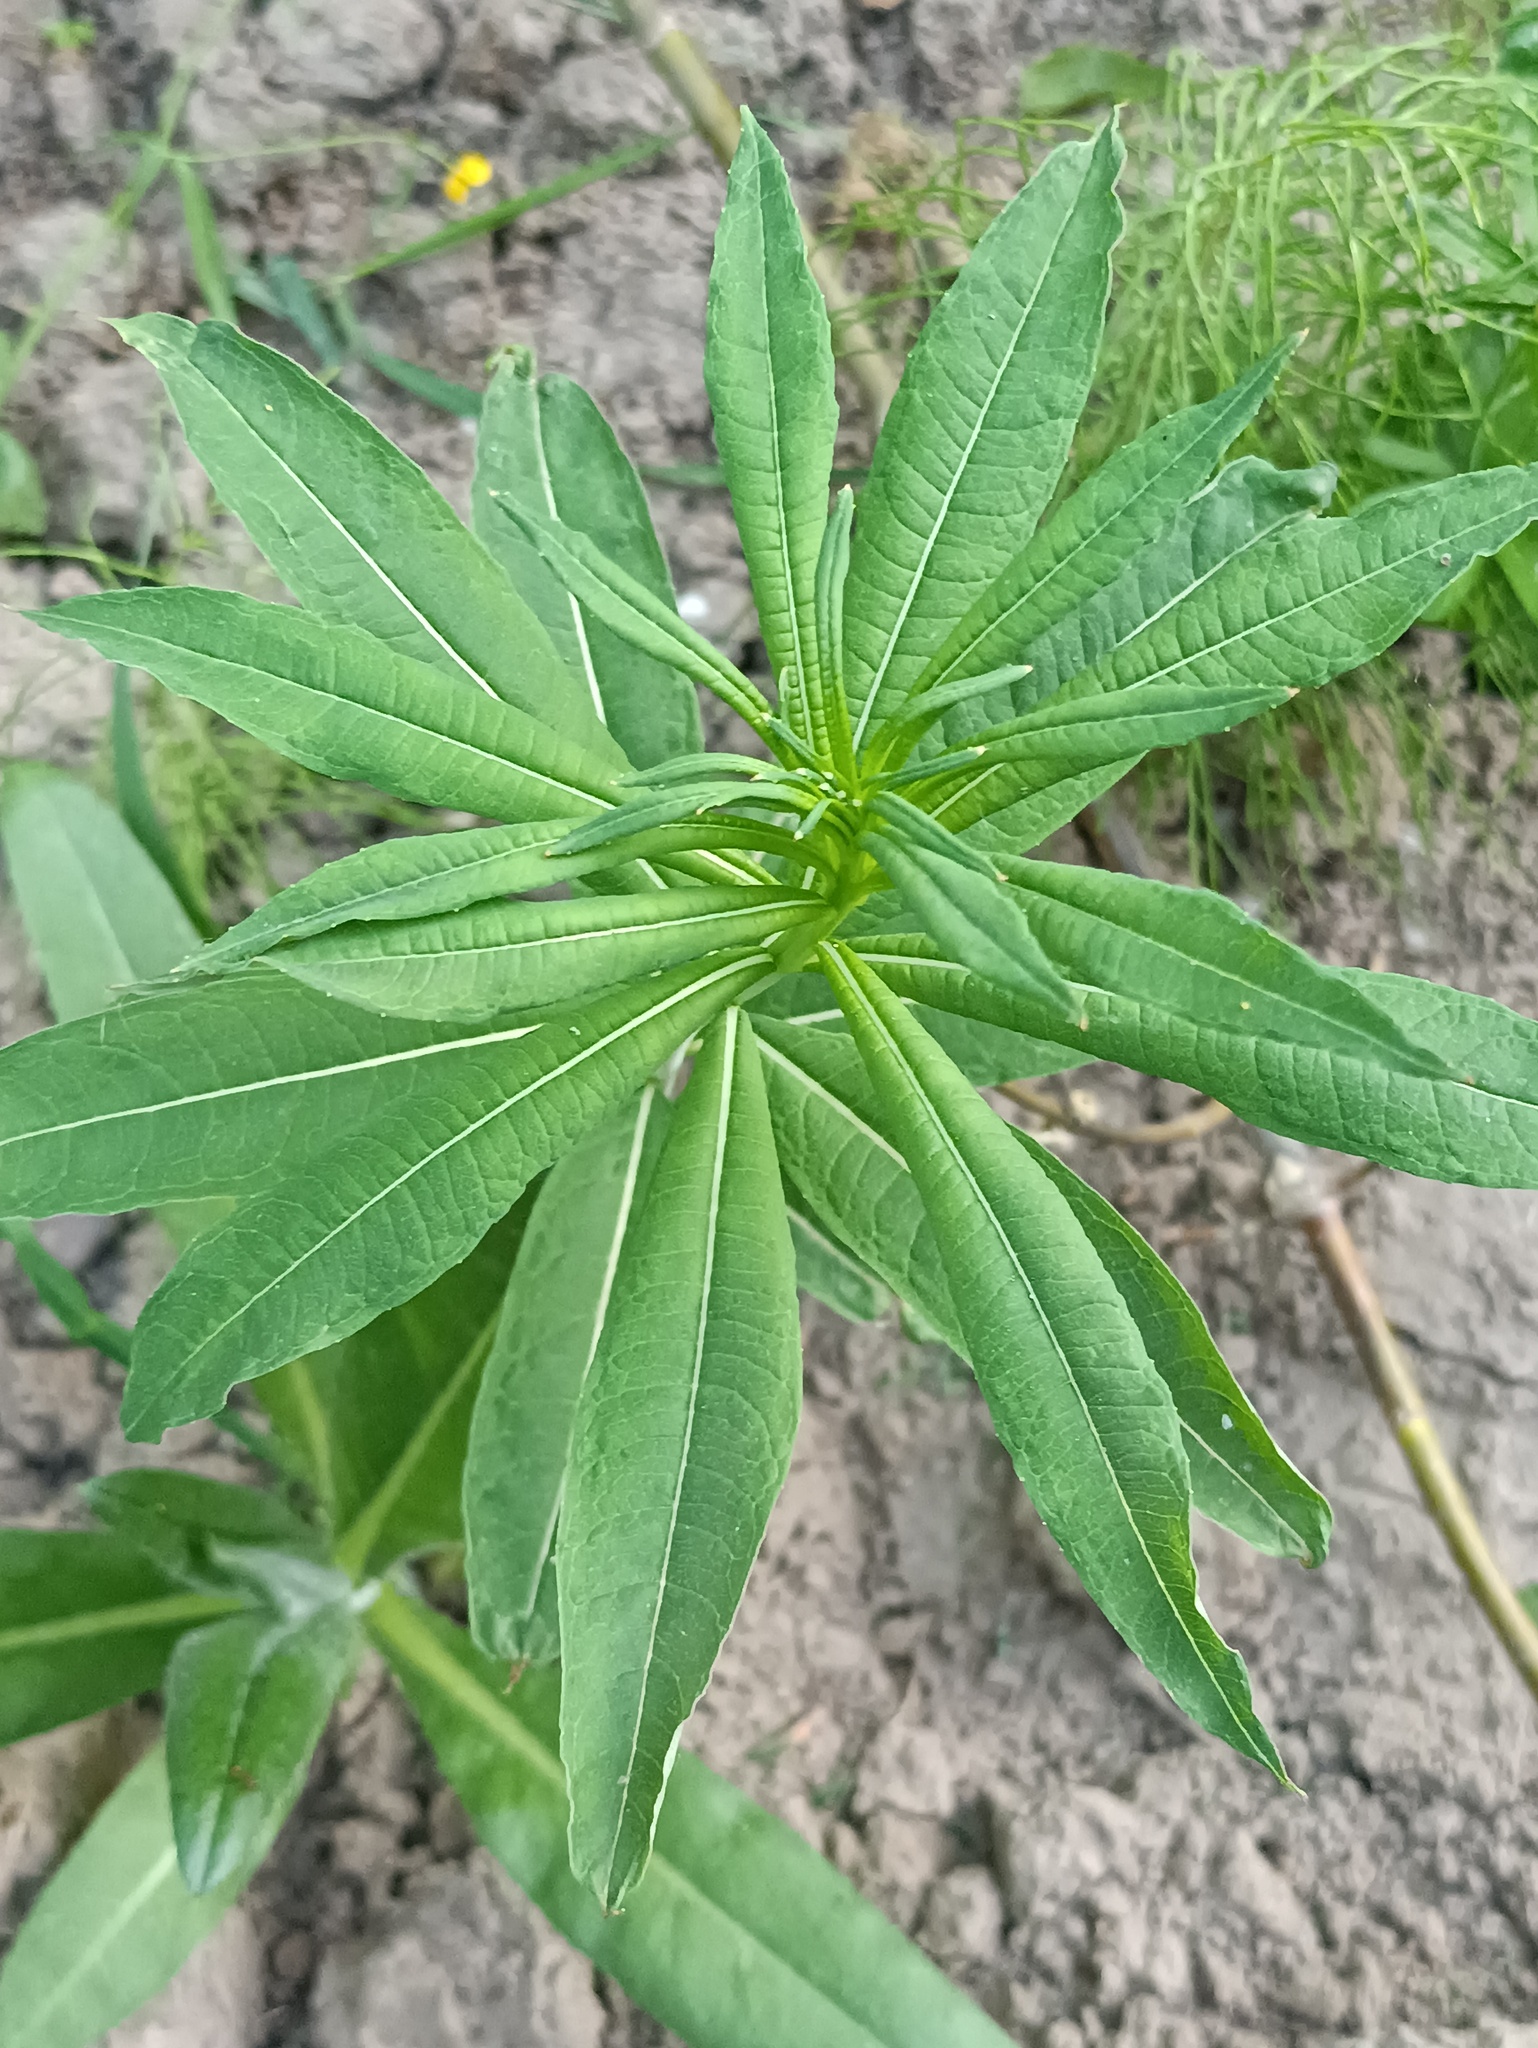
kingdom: Plantae
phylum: Tracheophyta
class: Magnoliopsida
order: Myrtales
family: Onagraceae
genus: Chamaenerion
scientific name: Chamaenerion angustifolium
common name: Fireweed
